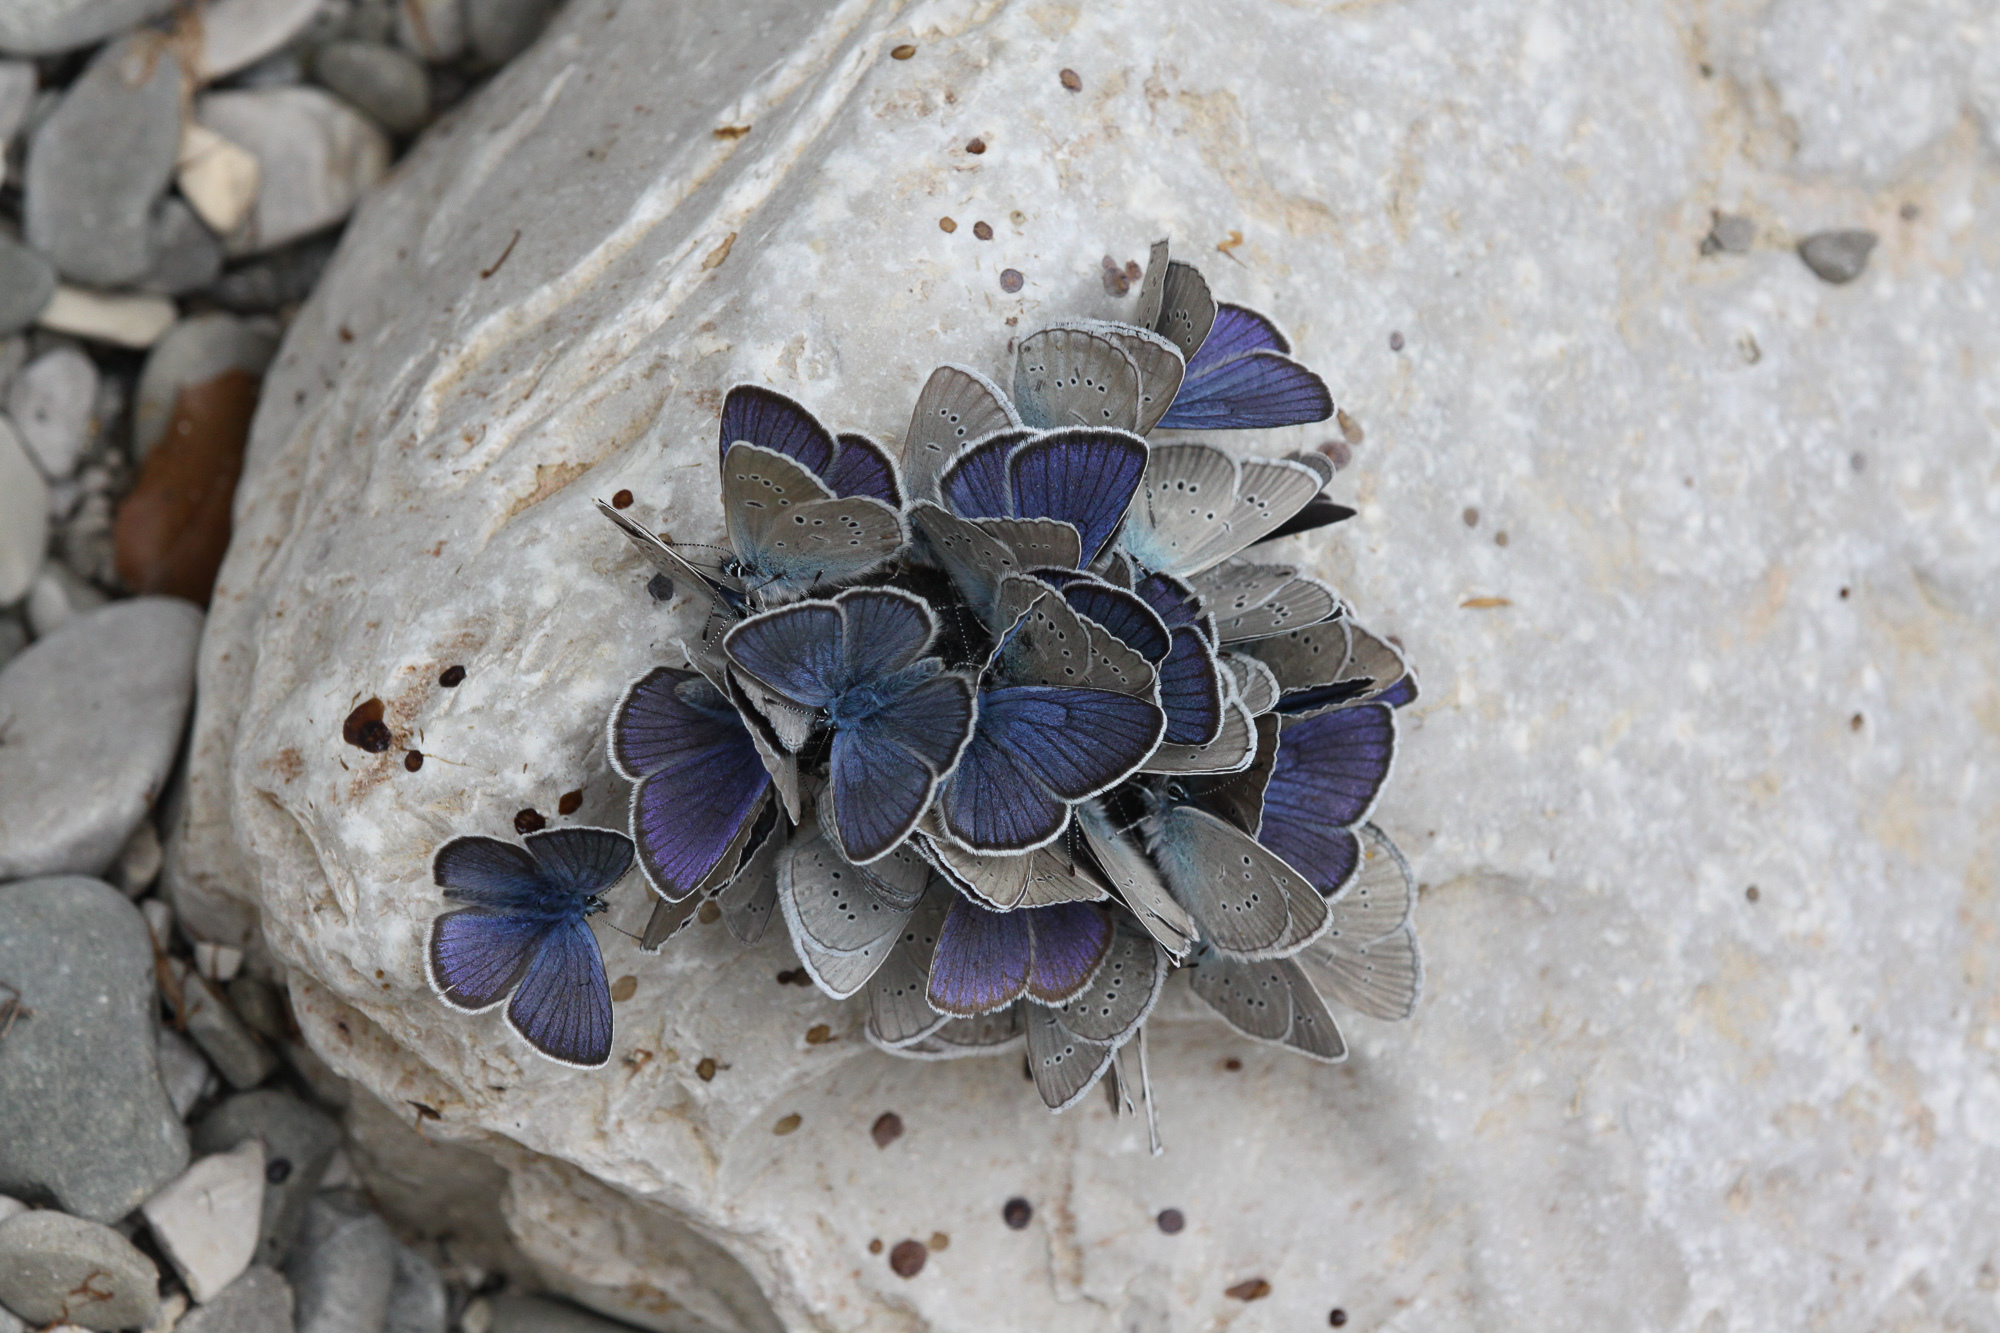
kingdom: Animalia
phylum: Arthropoda
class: Insecta
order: Lepidoptera
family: Lycaenidae
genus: Cyaniris
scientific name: Cyaniris semiargus
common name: Mazarine blue
